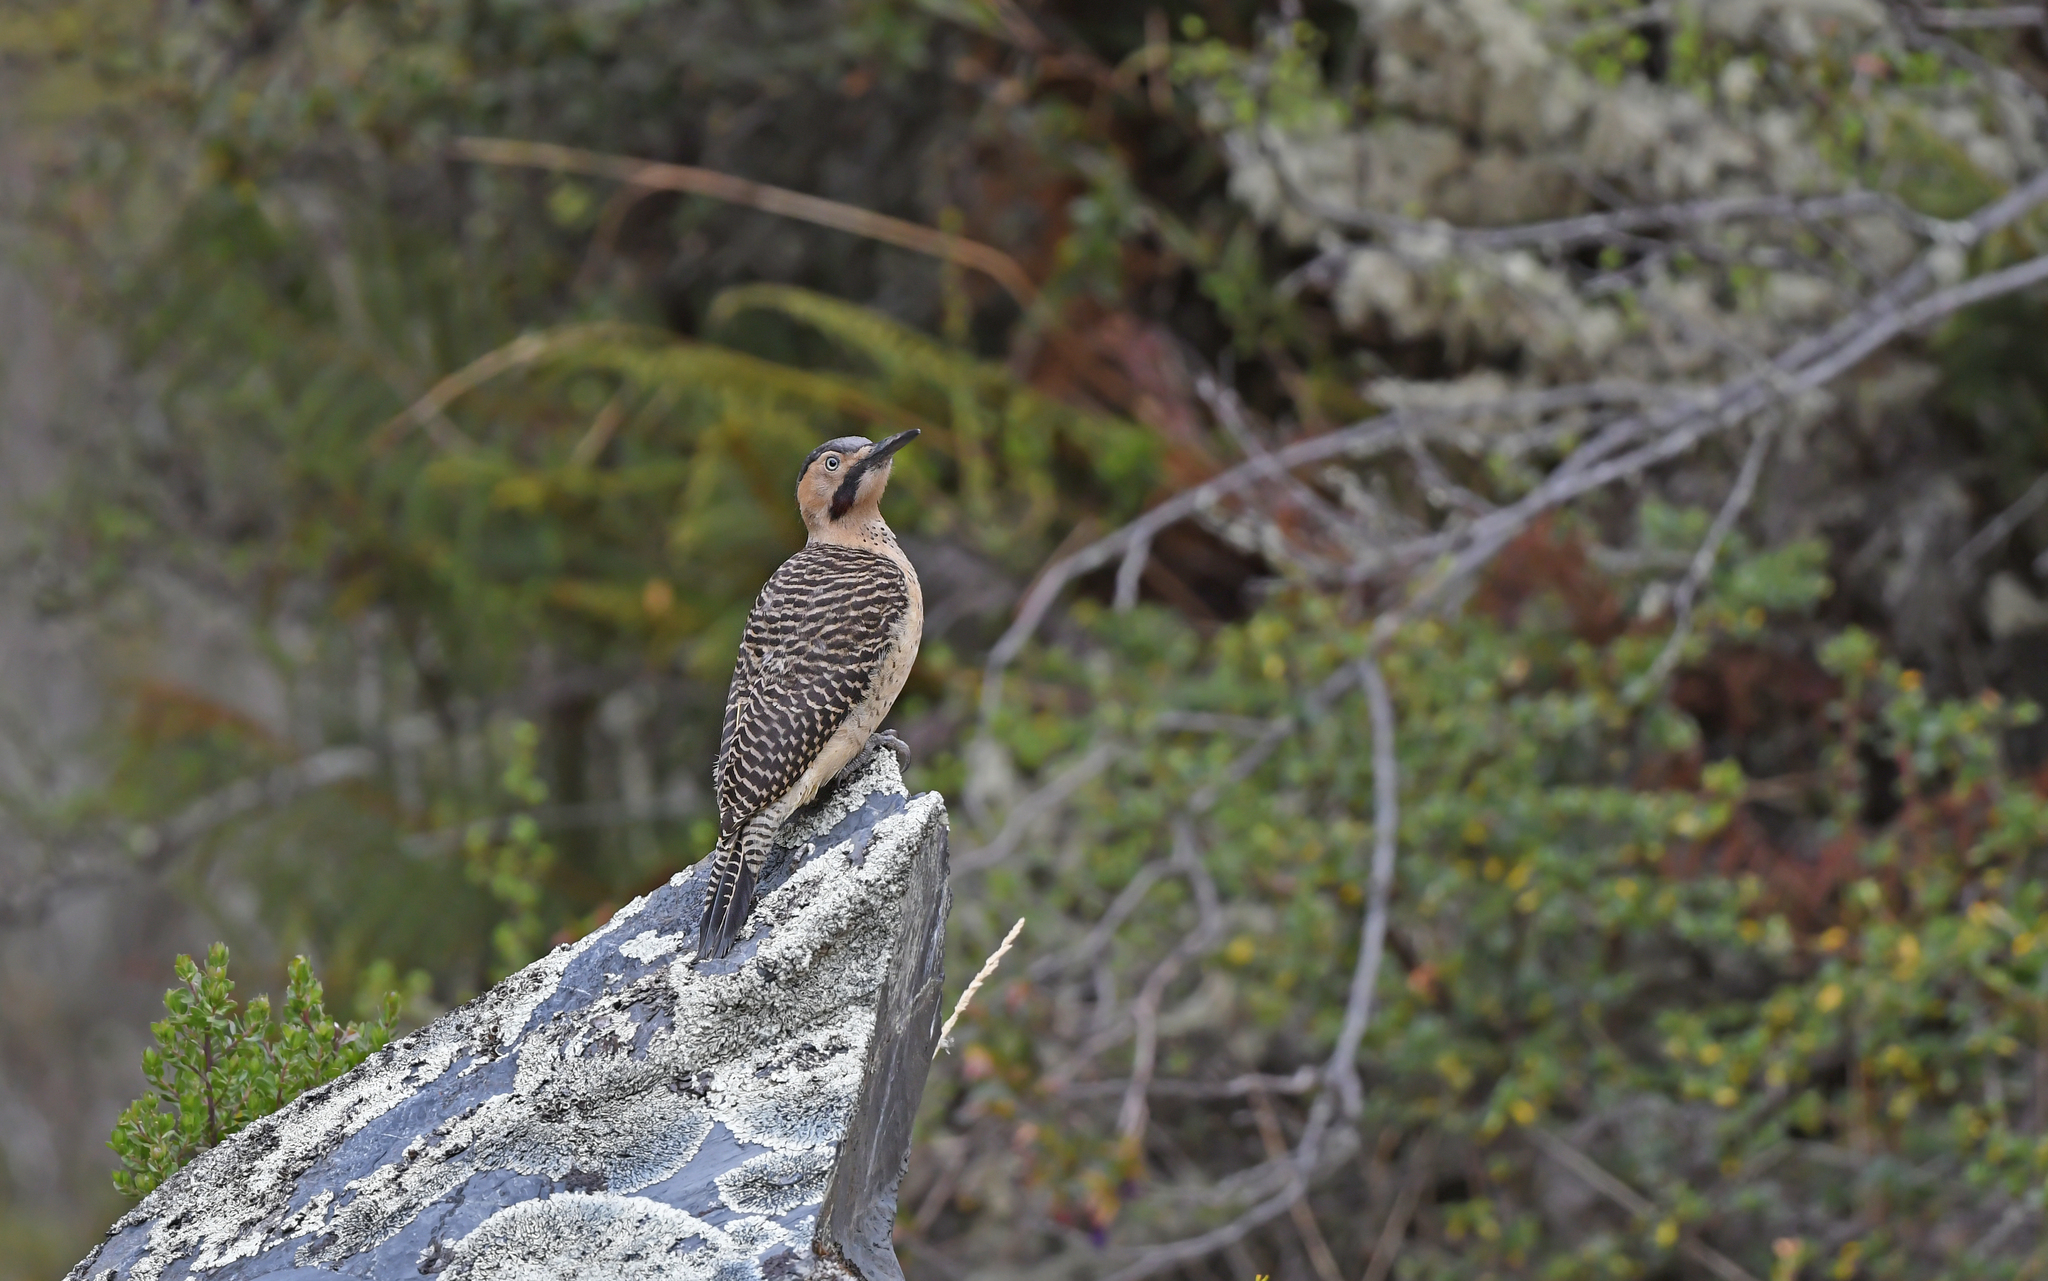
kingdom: Animalia
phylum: Chordata
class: Aves
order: Piciformes
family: Picidae
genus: Colaptes
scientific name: Colaptes rupicola
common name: Andean flicker
